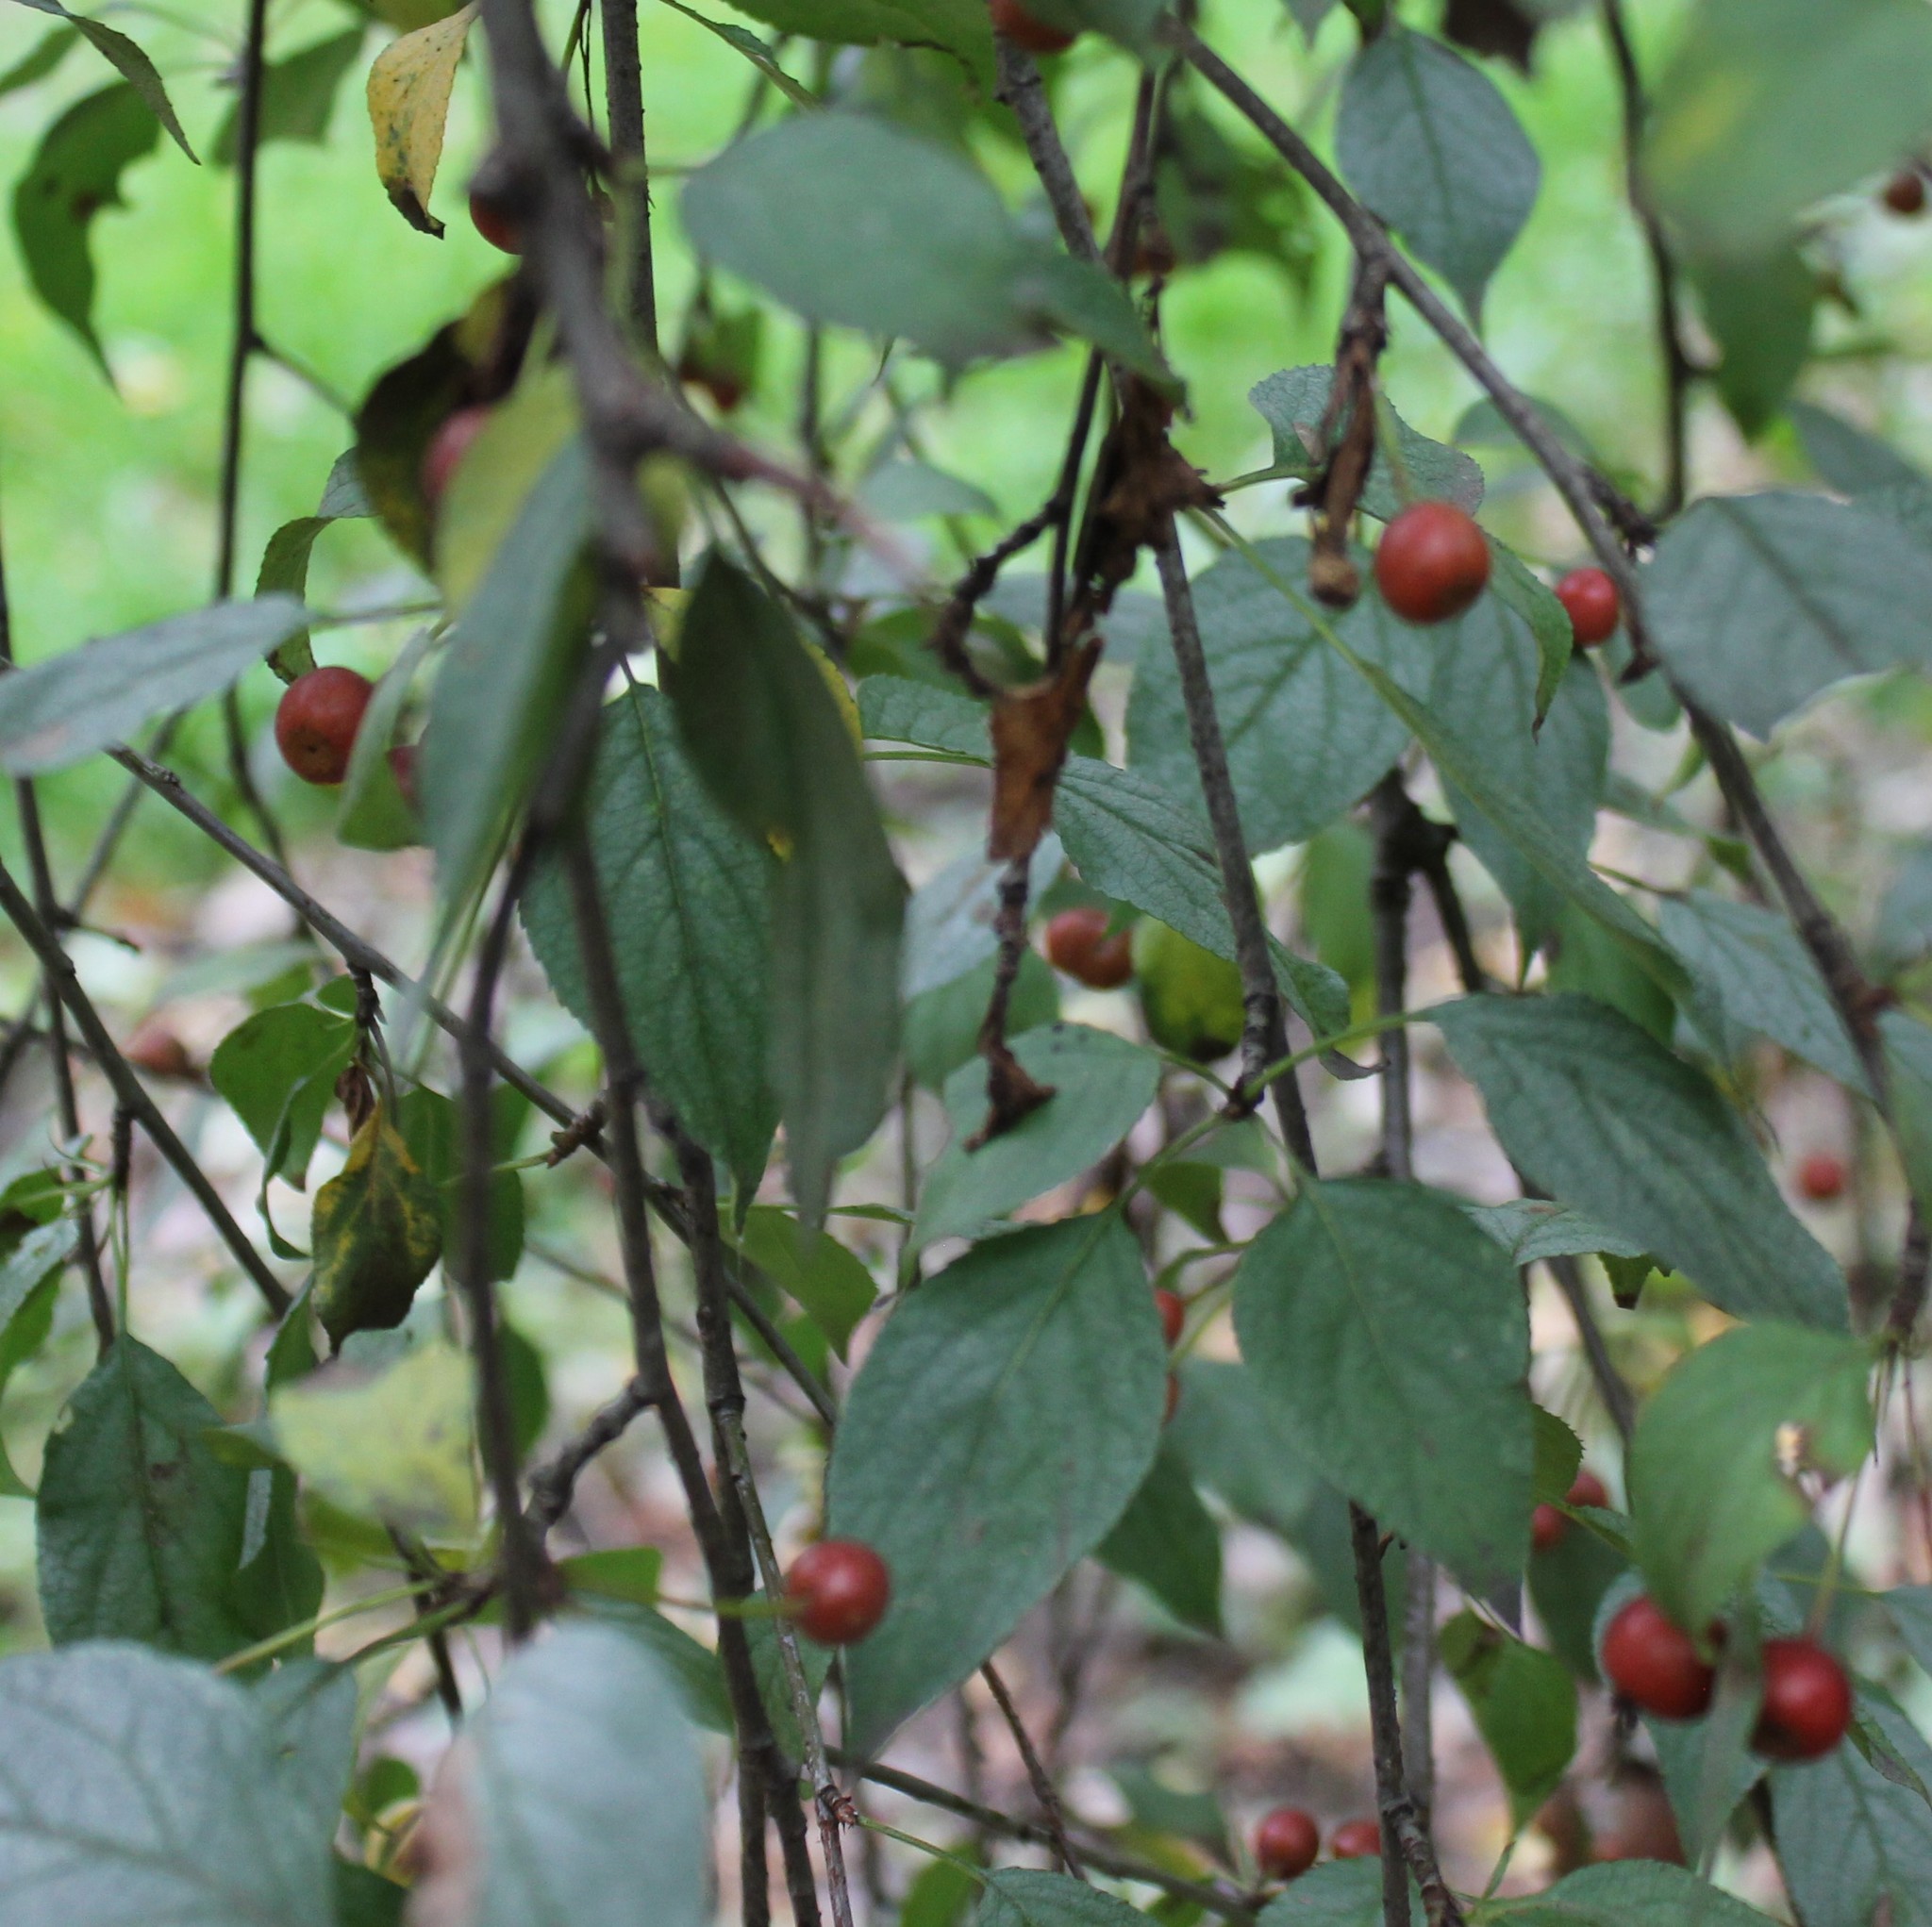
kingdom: Plantae
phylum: Tracheophyta
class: Magnoliopsida
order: Rosales
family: Rosaceae
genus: Malus
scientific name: Malus baccata
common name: Siberian crab
